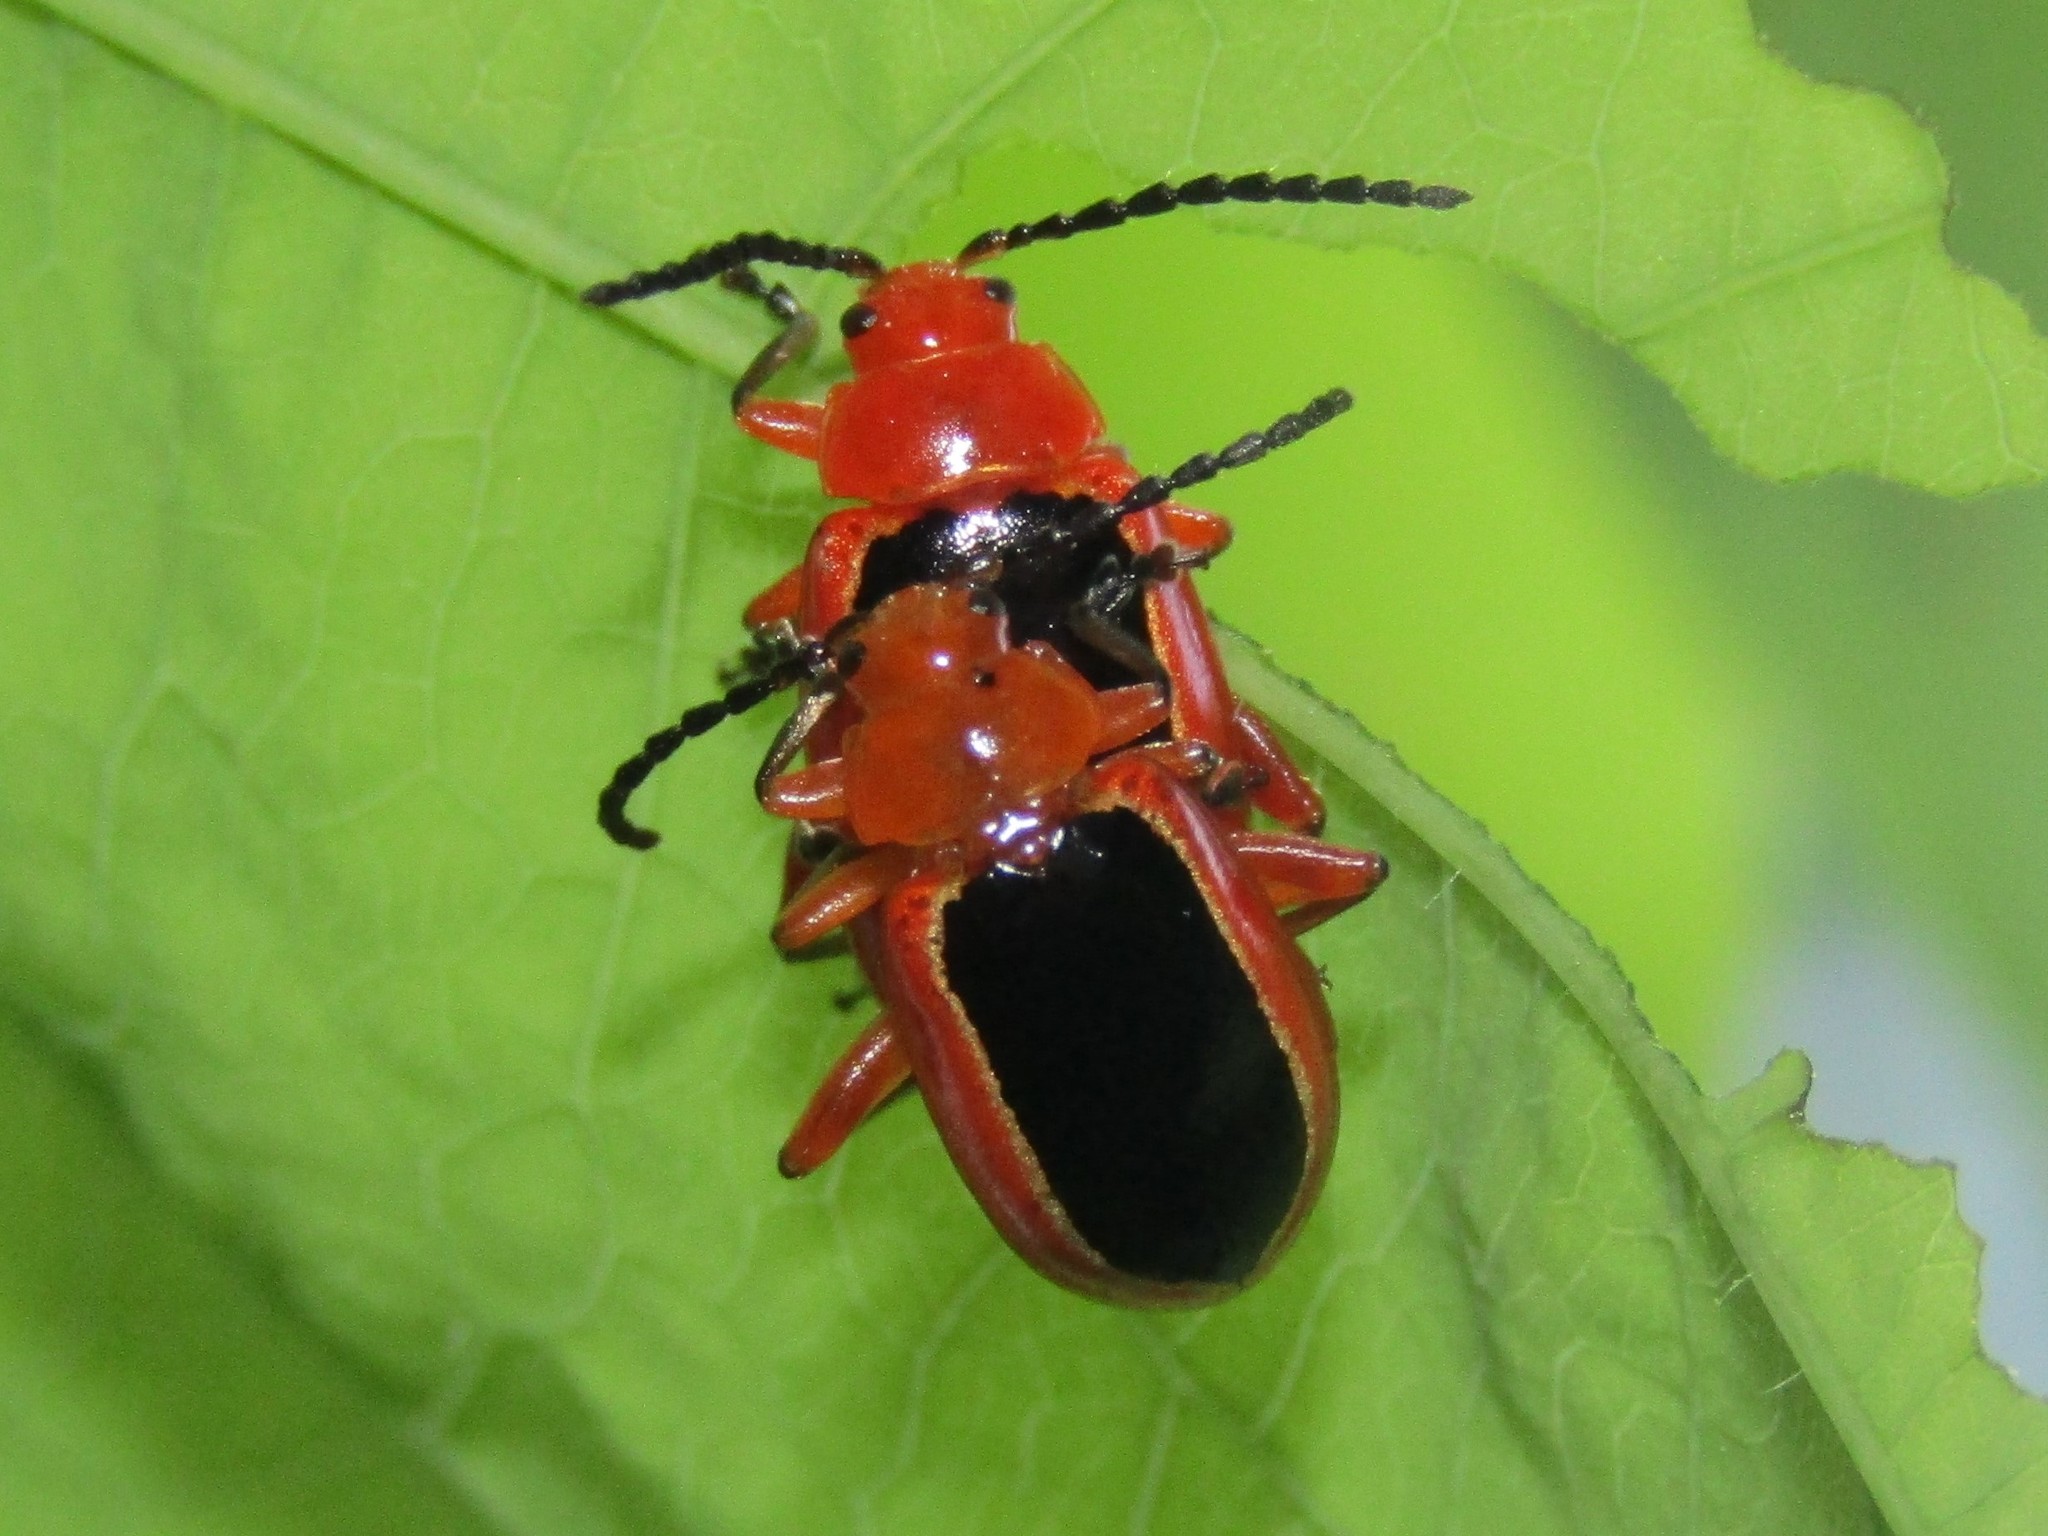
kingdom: Animalia
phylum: Arthropoda
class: Insecta
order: Coleoptera
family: Chrysomelidae
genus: Disonycha
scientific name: Disonycha discoidea
